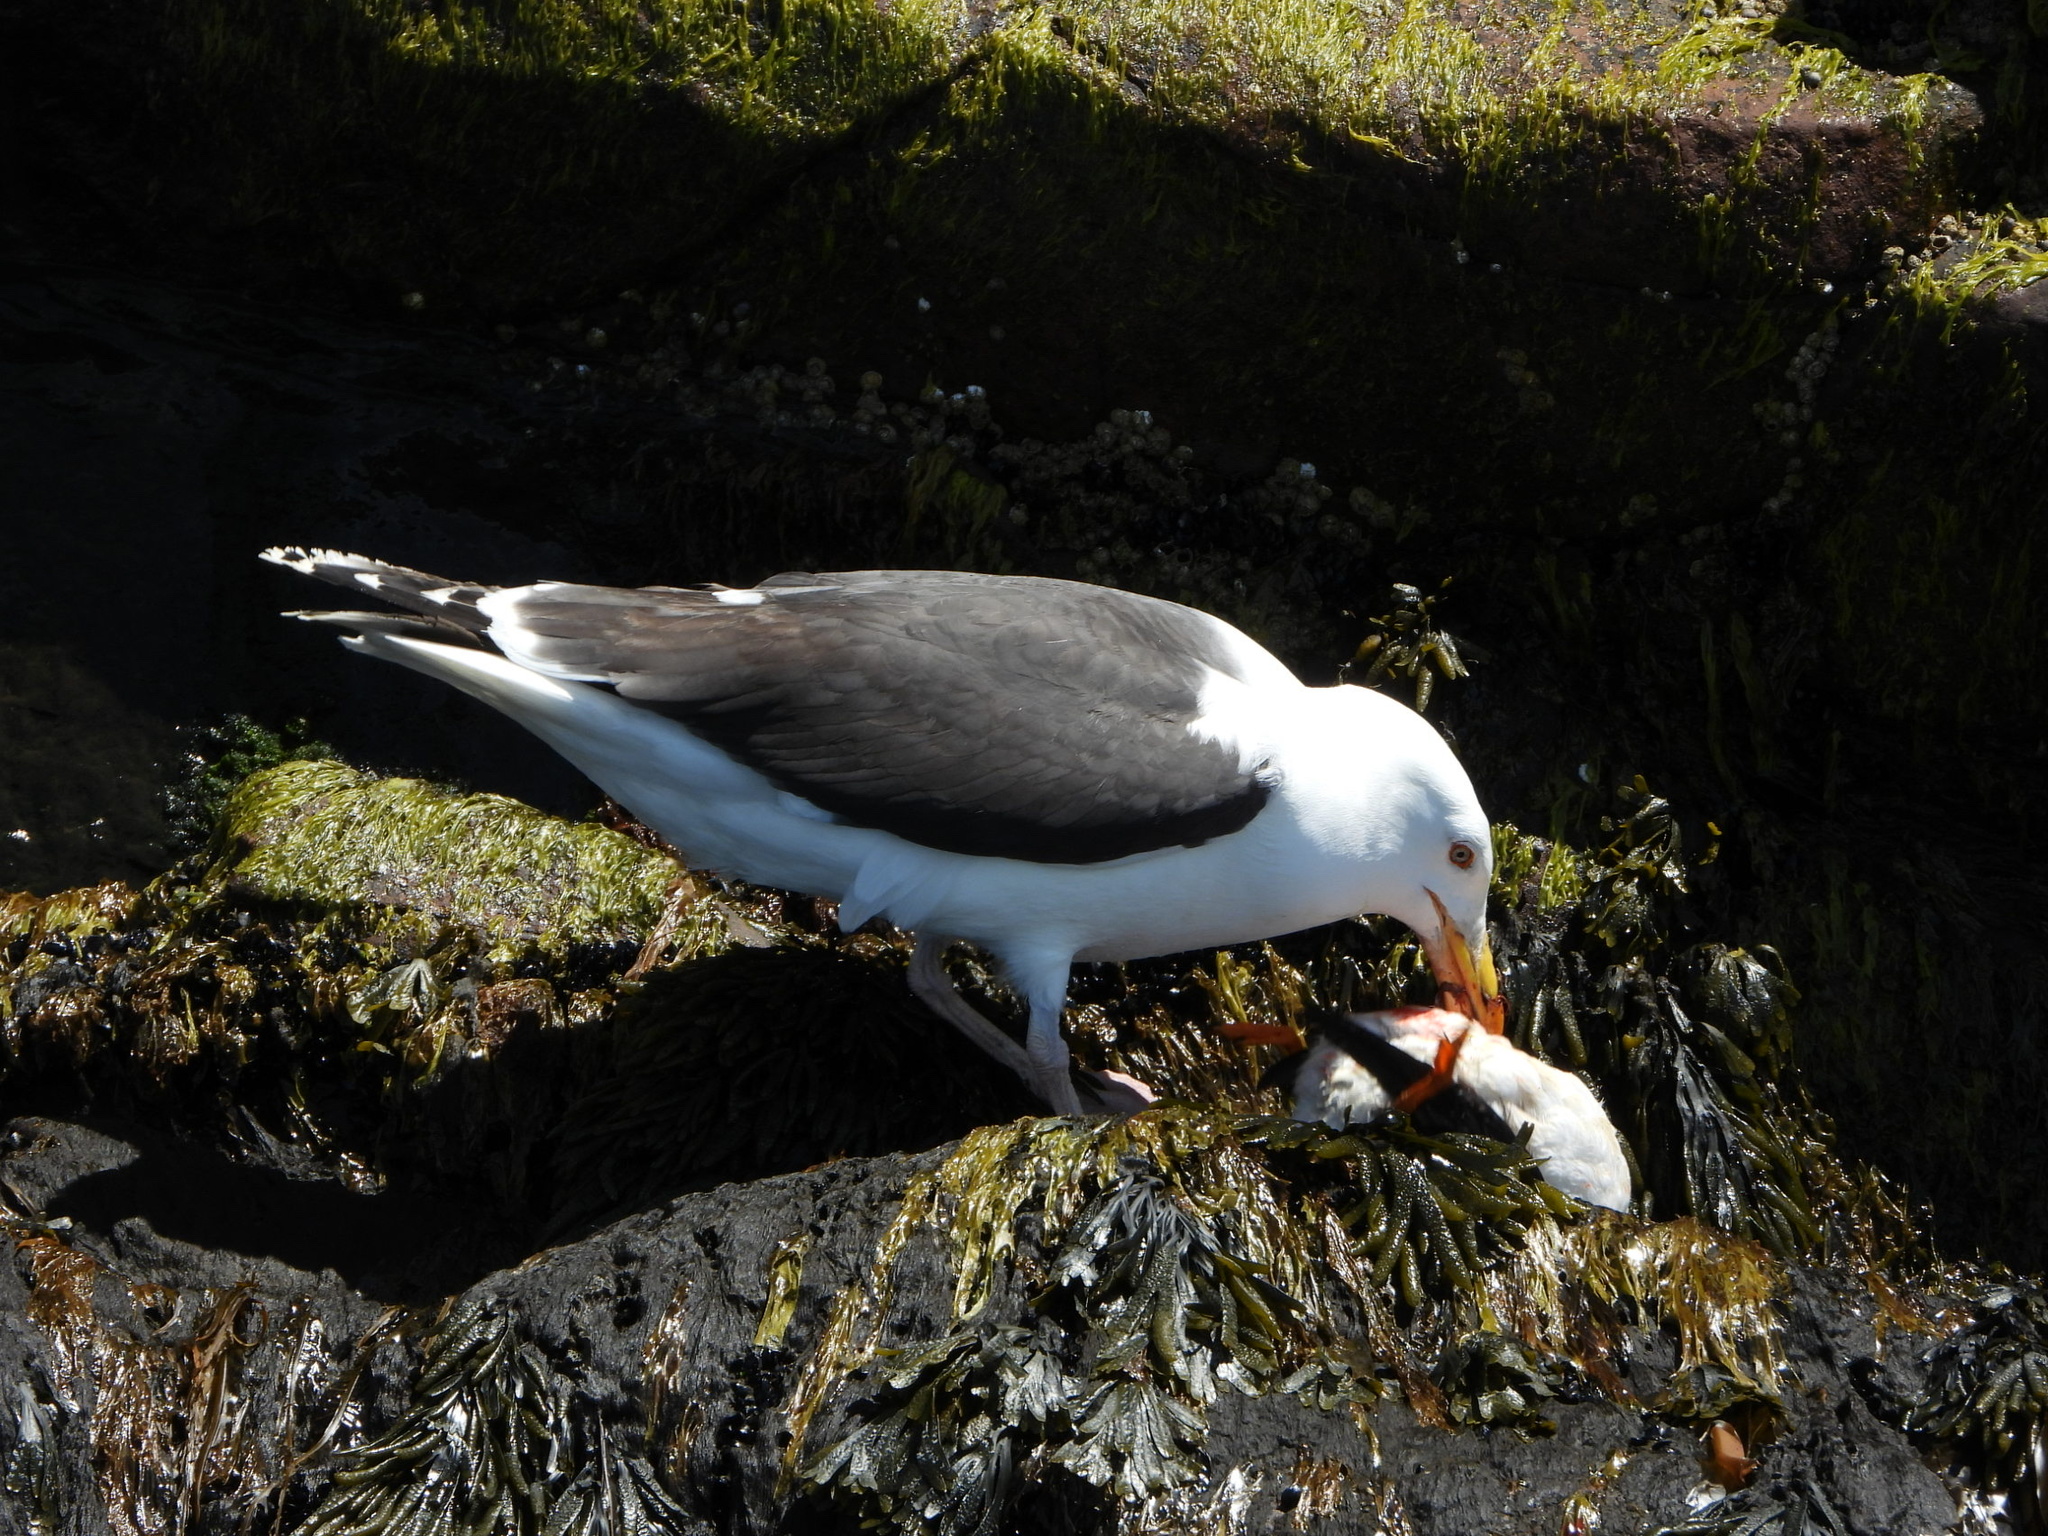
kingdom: Animalia
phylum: Chordata
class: Aves
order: Charadriiformes
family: Laridae
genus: Larus
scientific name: Larus marinus
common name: Great black-backed gull
